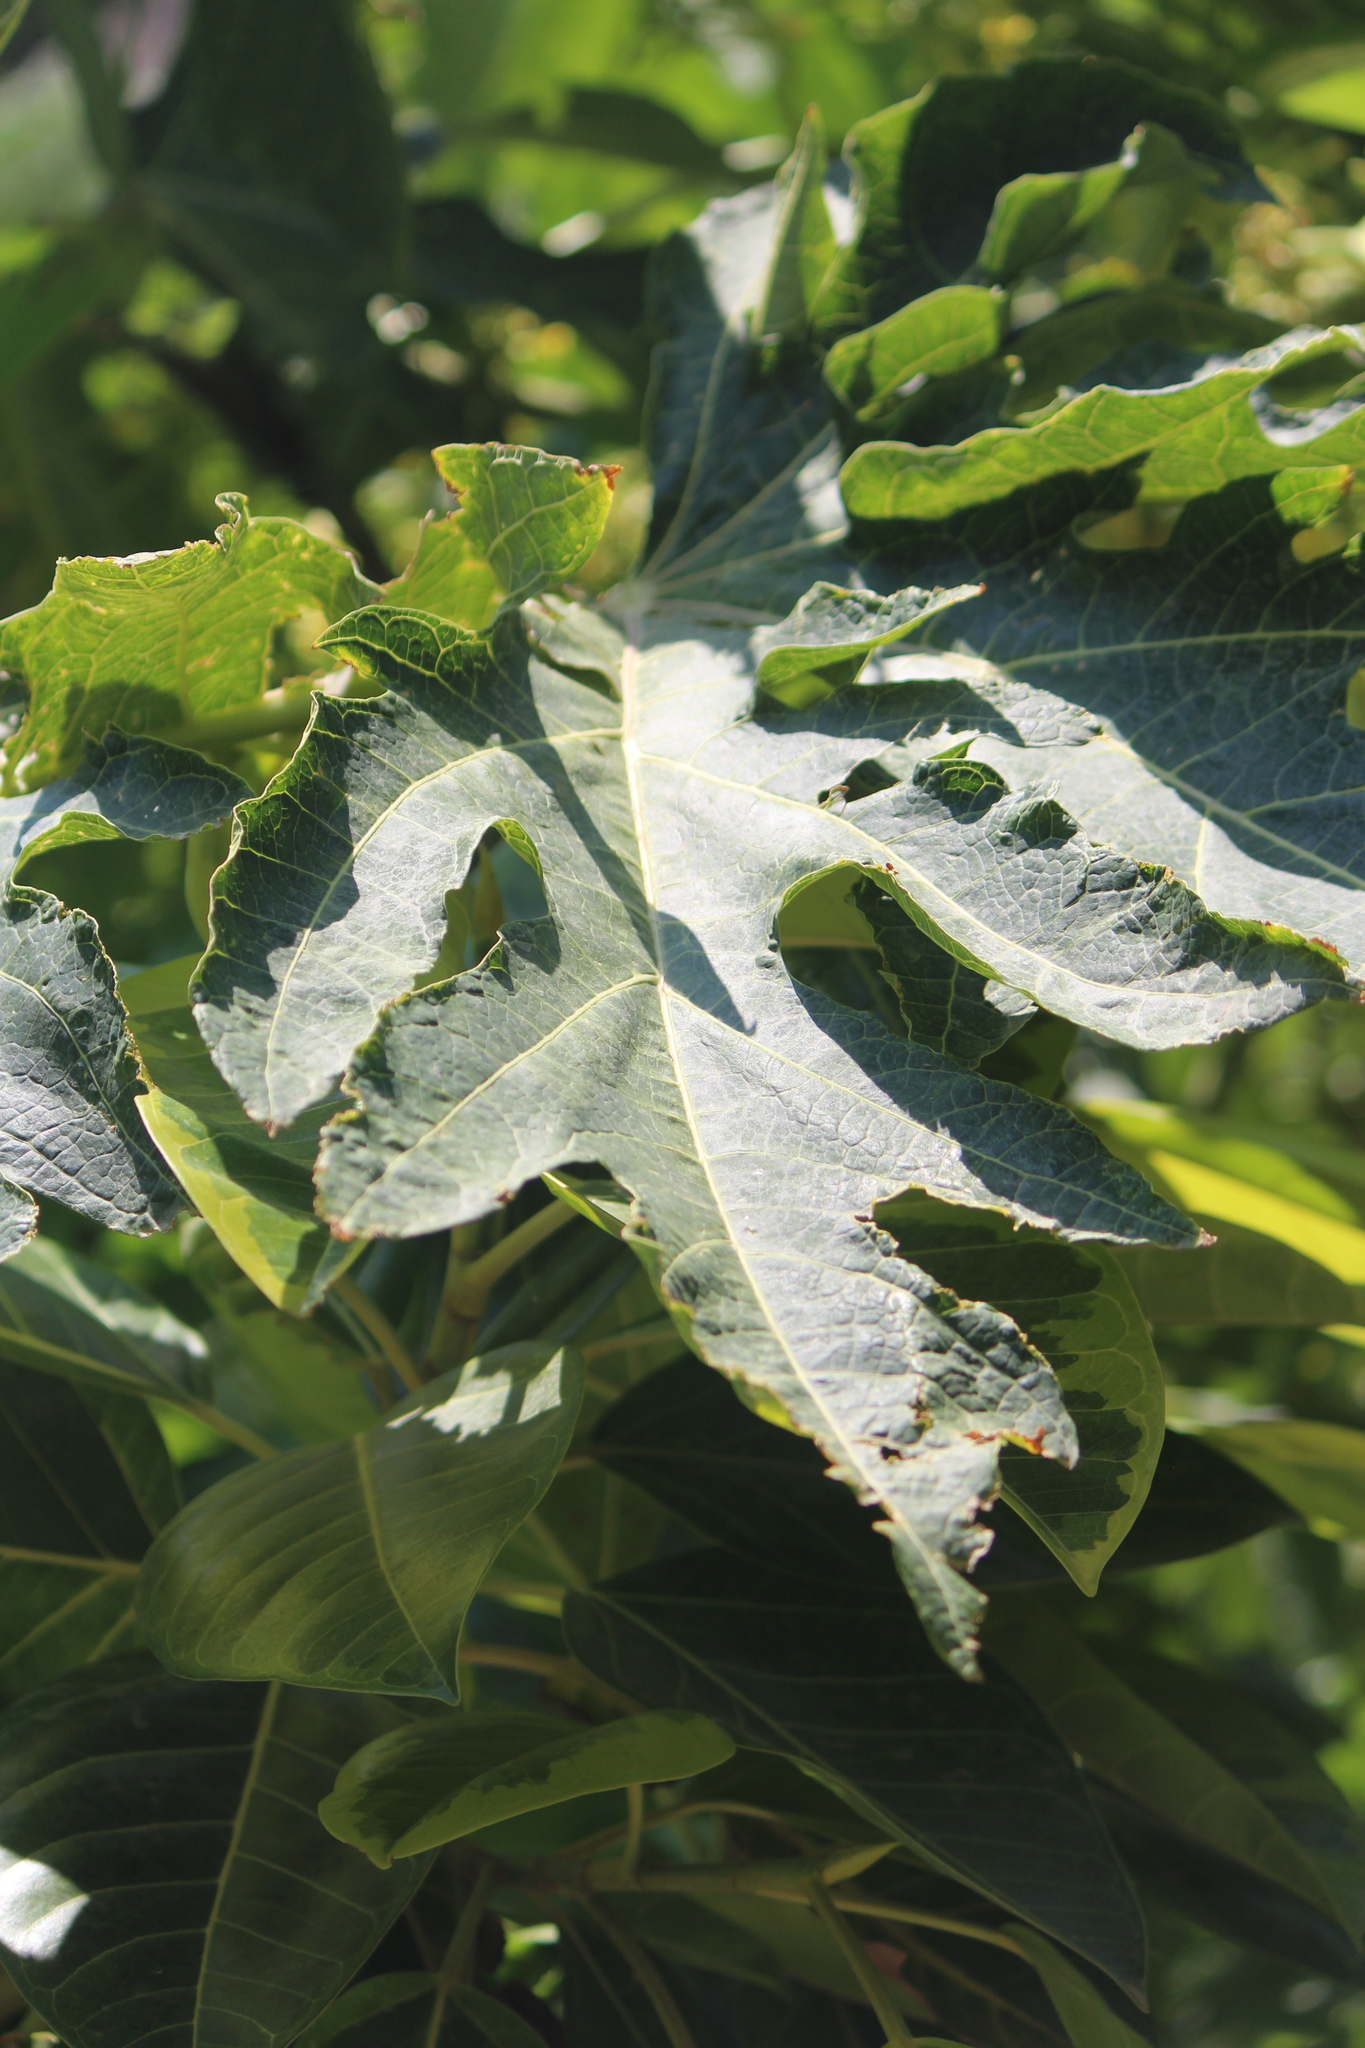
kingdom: Plantae
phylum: Tracheophyta
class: Magnoliopsida
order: Brassicales
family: Caricaceae
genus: Carica
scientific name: Carica papaya
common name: Papaya
